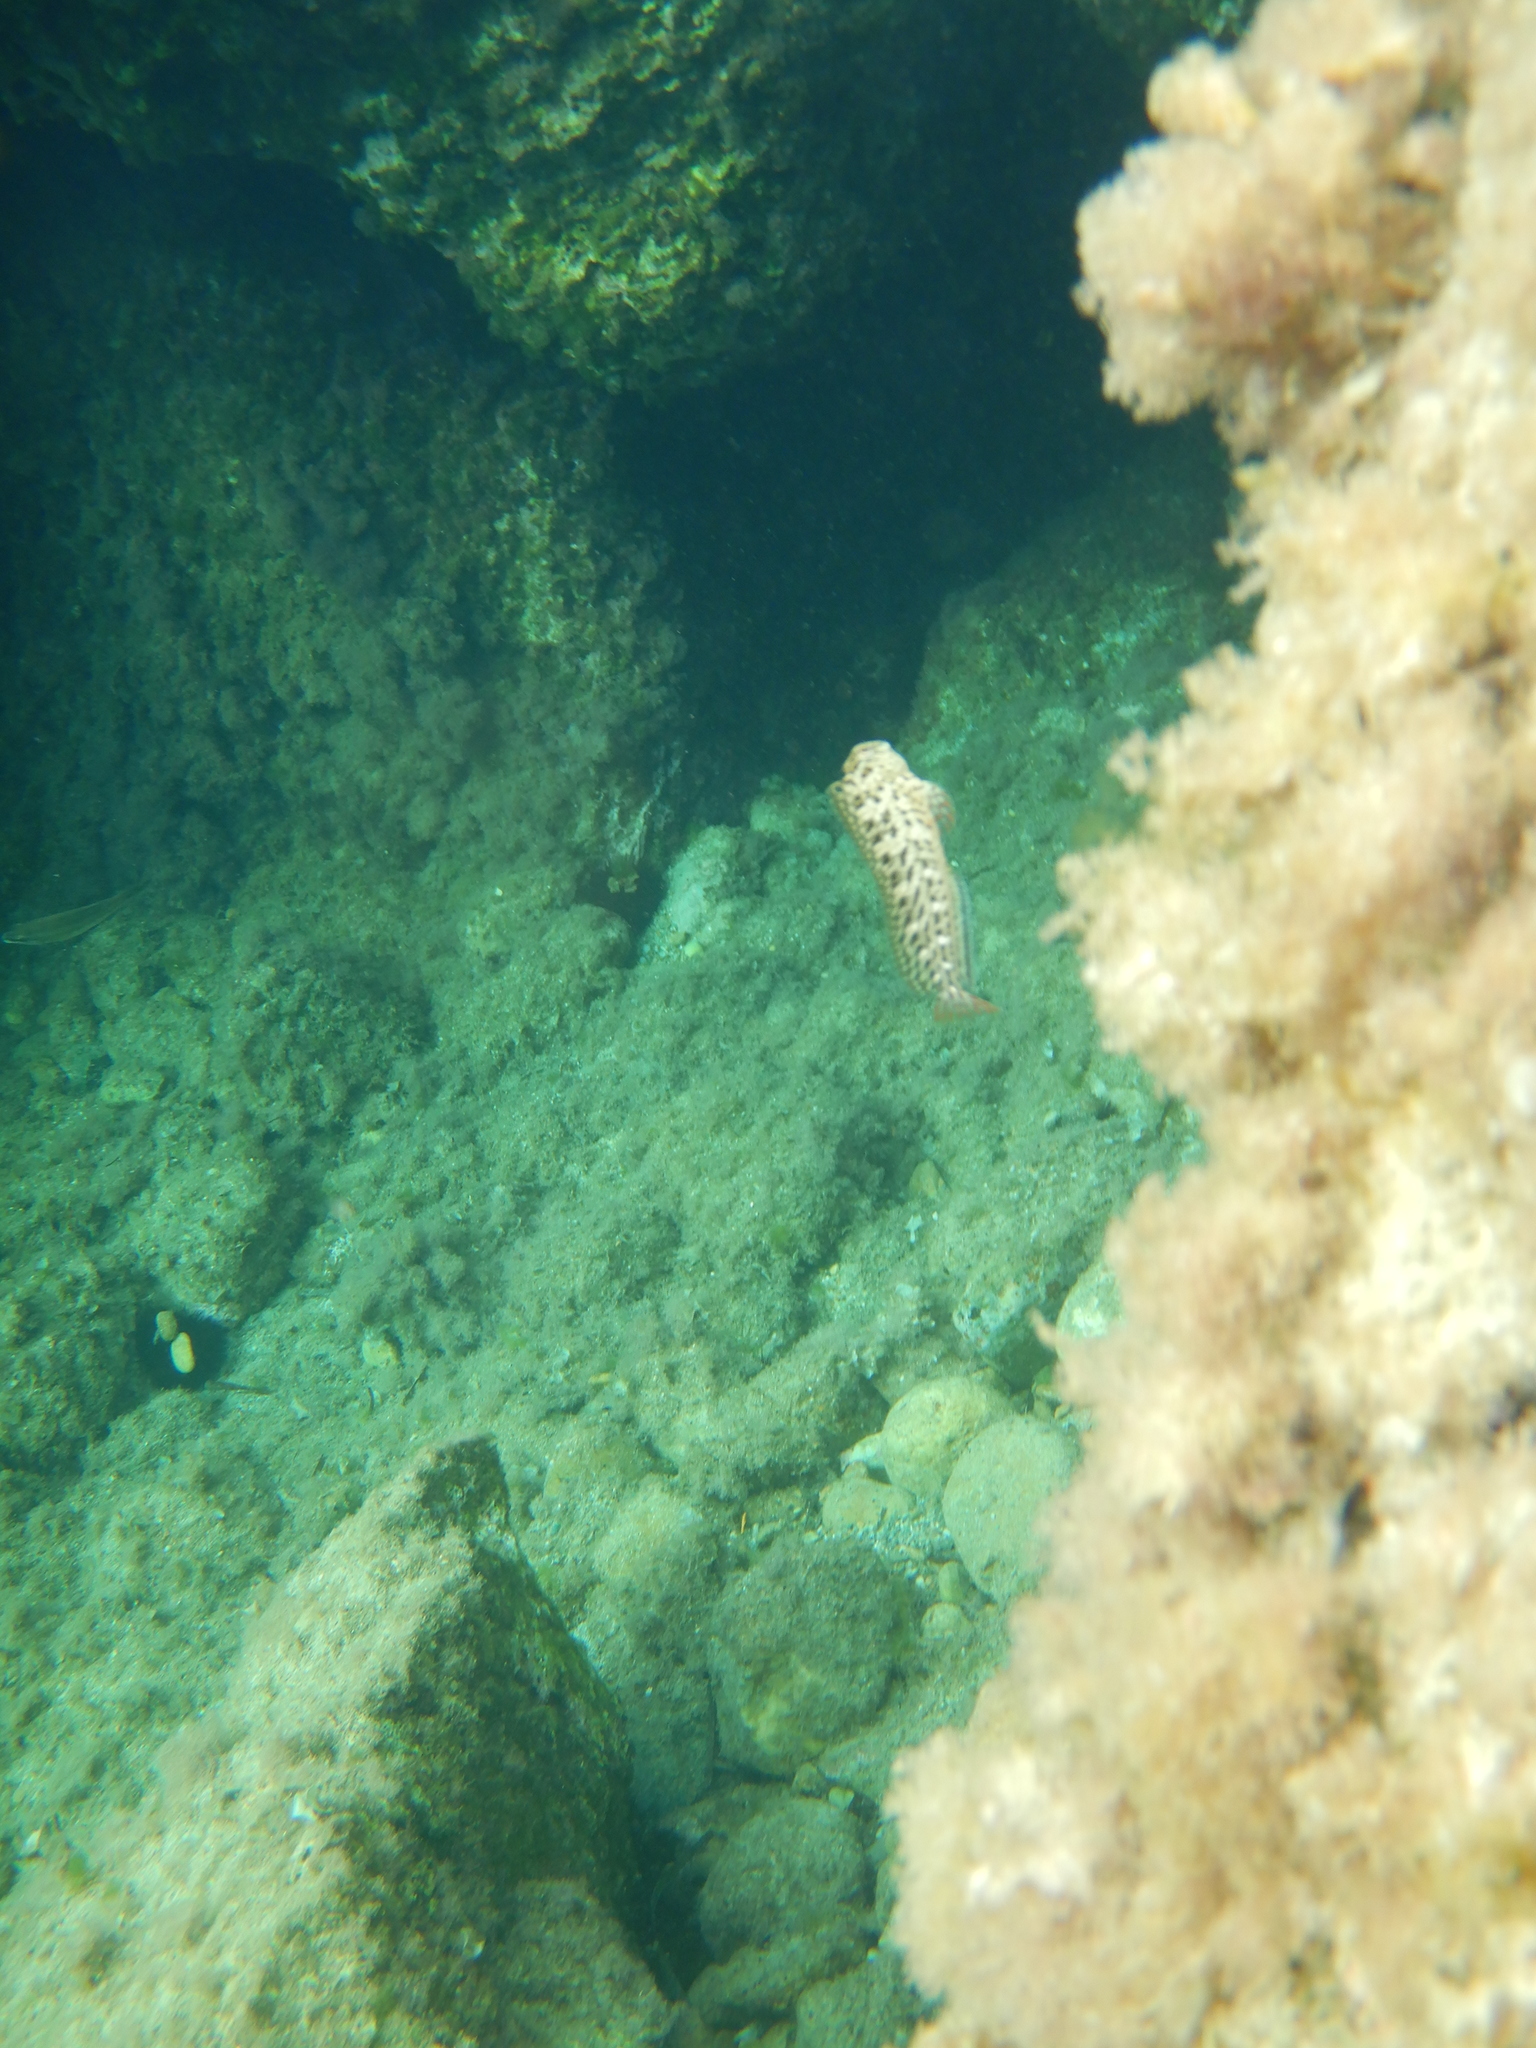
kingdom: Animalia
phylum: Chordata
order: Perciformes
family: Blenniidae
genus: Parablennius
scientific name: Parablennius sanguinolentus
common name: Black sea blenny
